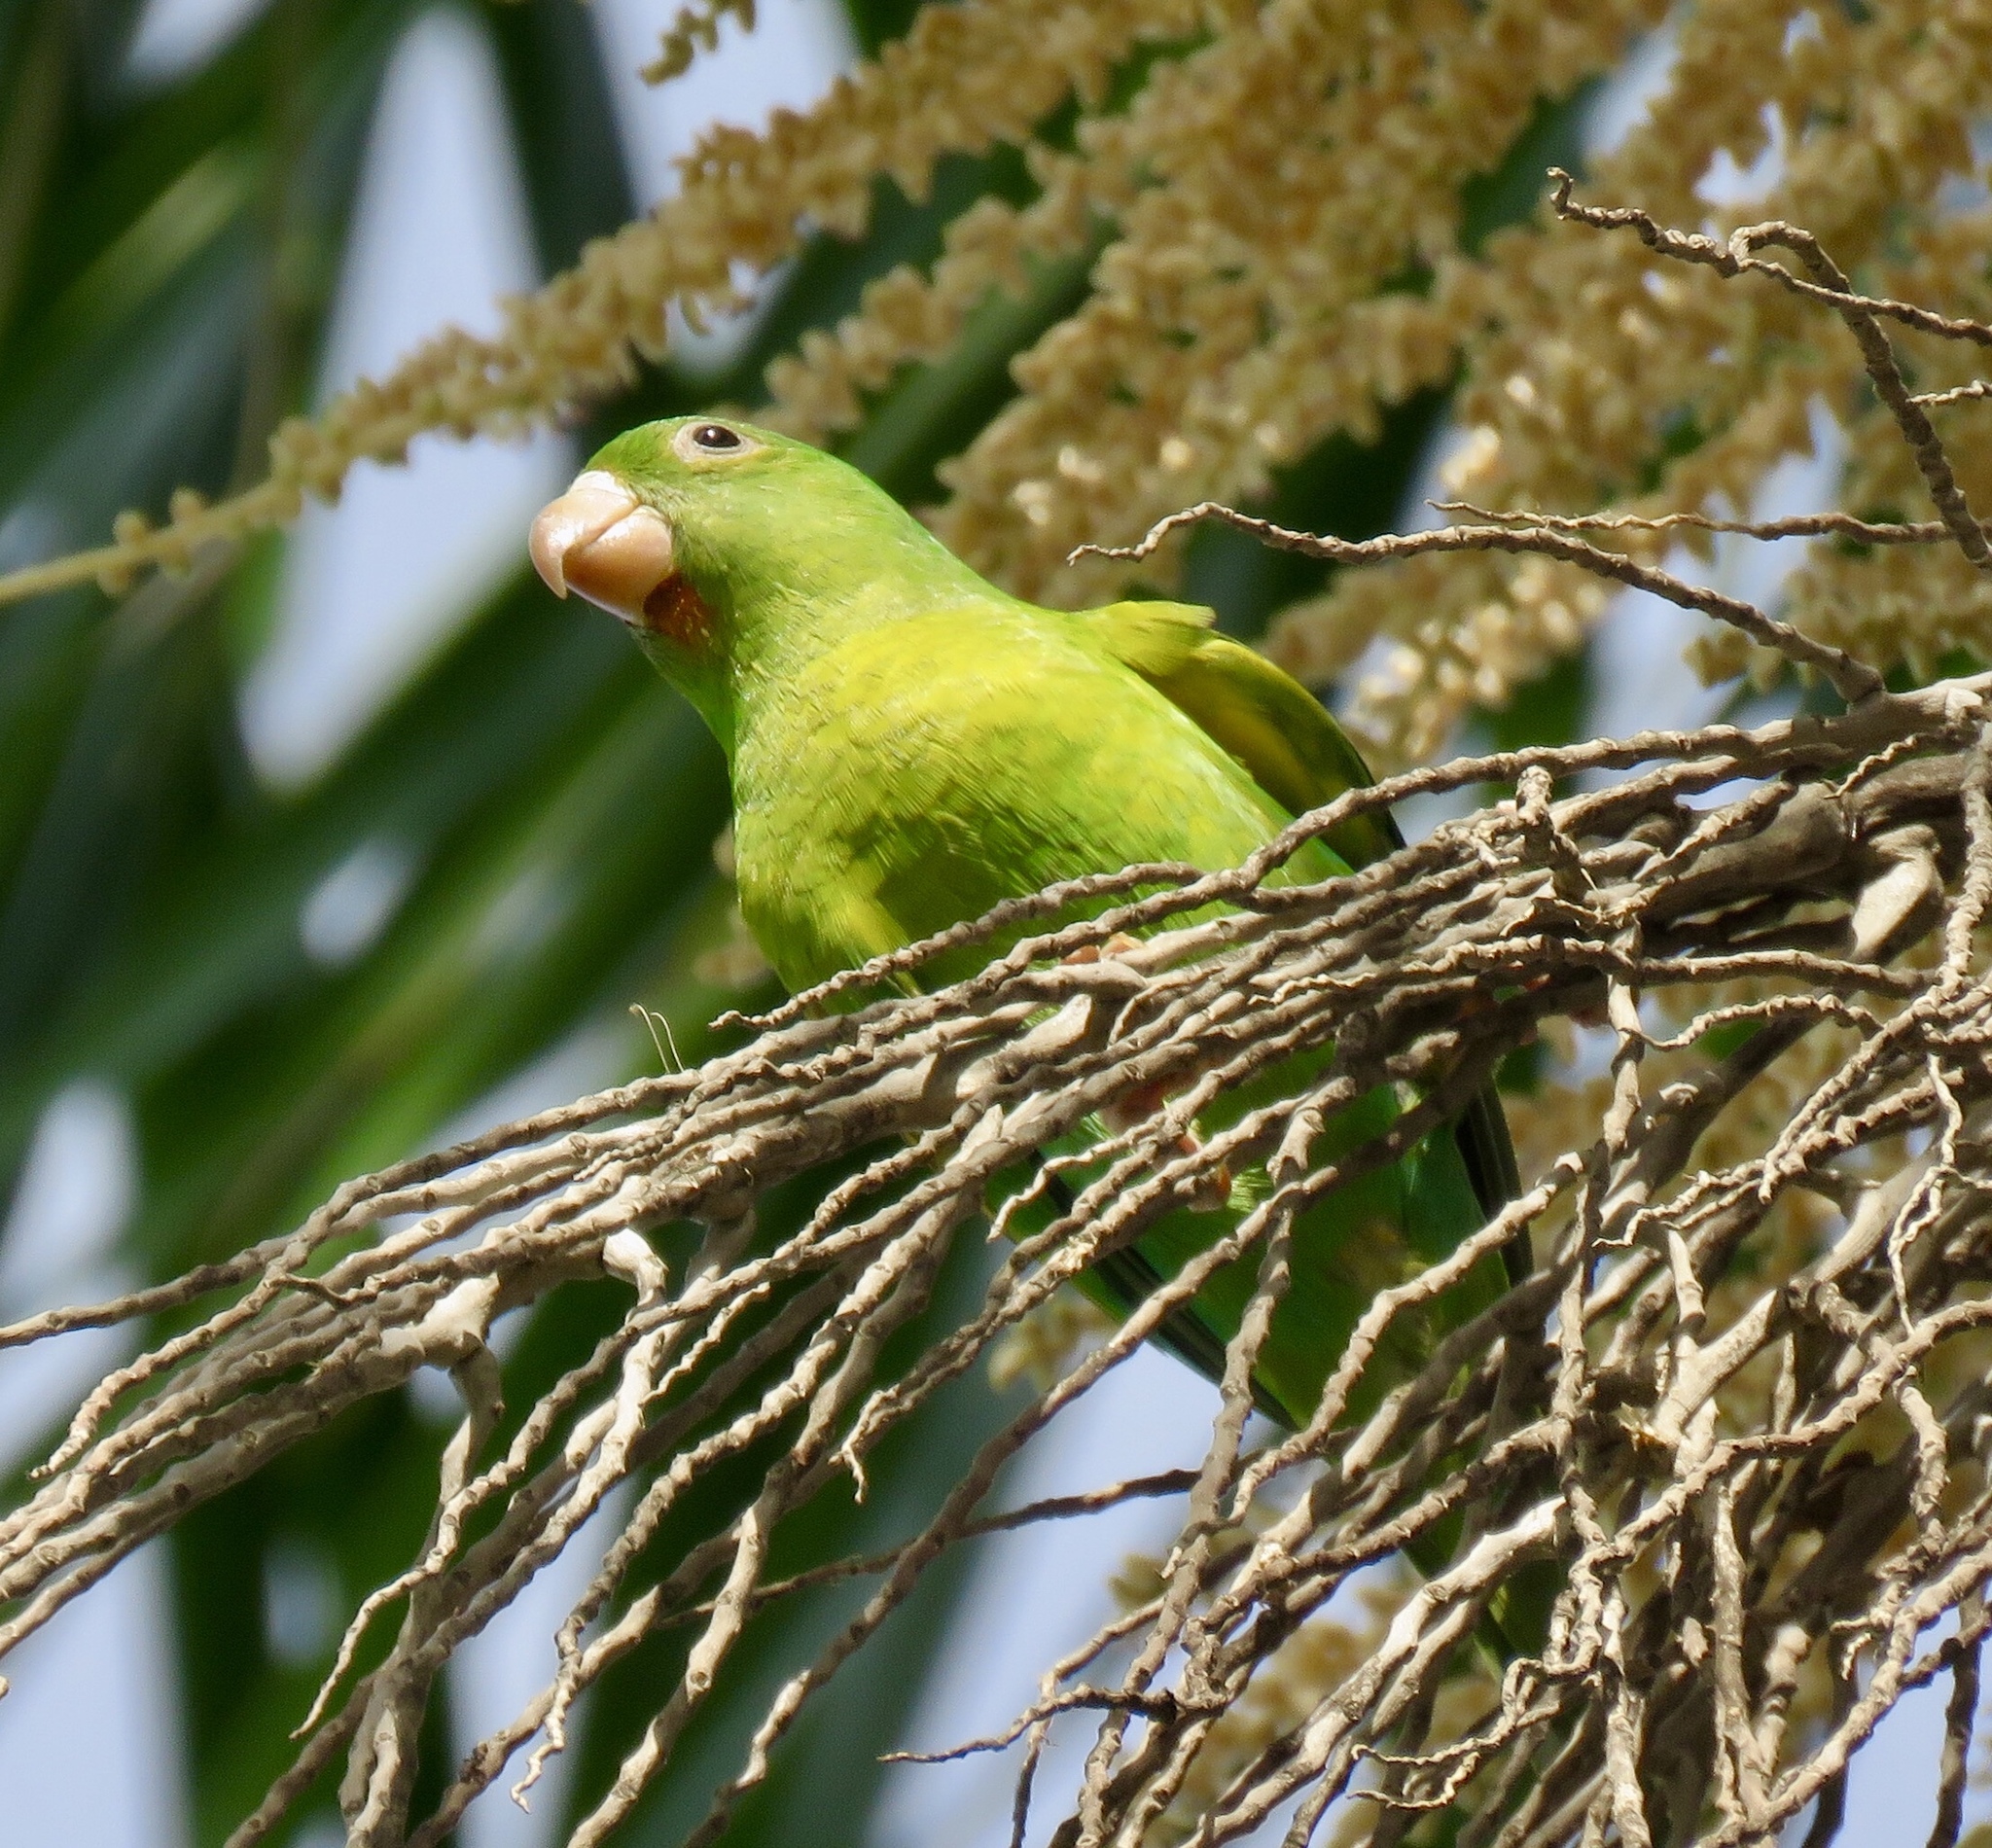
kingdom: Animalia
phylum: Chordata
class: Aves
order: Psittaciformes
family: Psittacidae
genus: Brotogeris
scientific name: Brotogeris jugularis
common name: Orange-chinned parakeet
